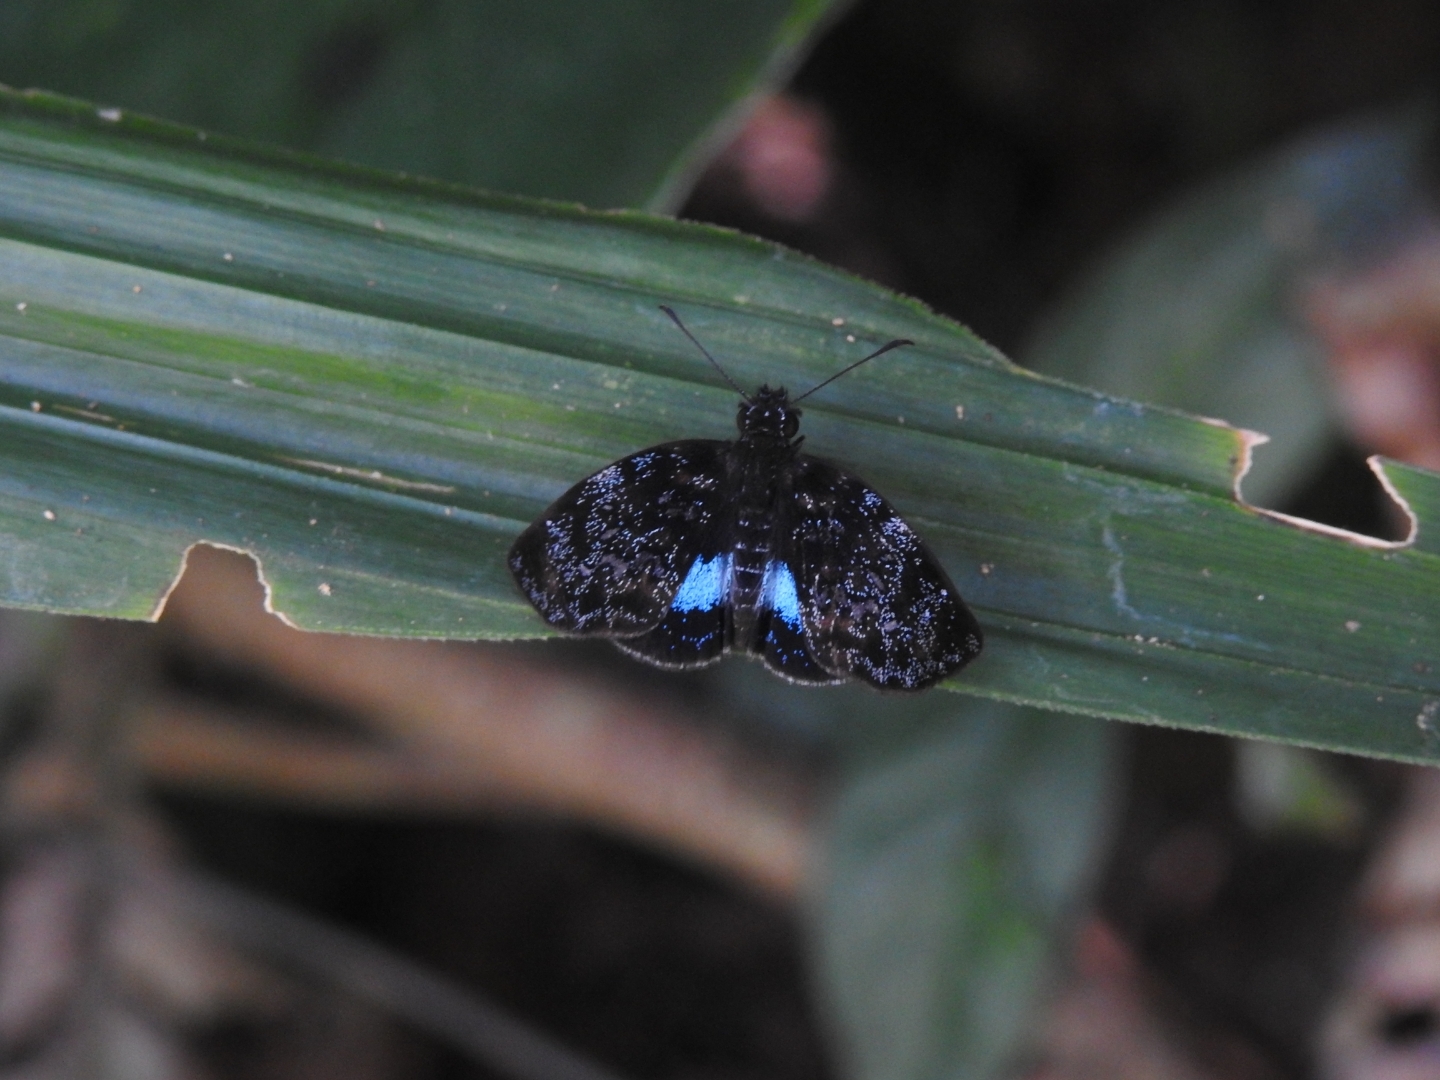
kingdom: Animalia
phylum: Arthropoda
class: Insecta
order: Lepidoptera
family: Hesperiidae
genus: Sostrata
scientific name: Sostrata
